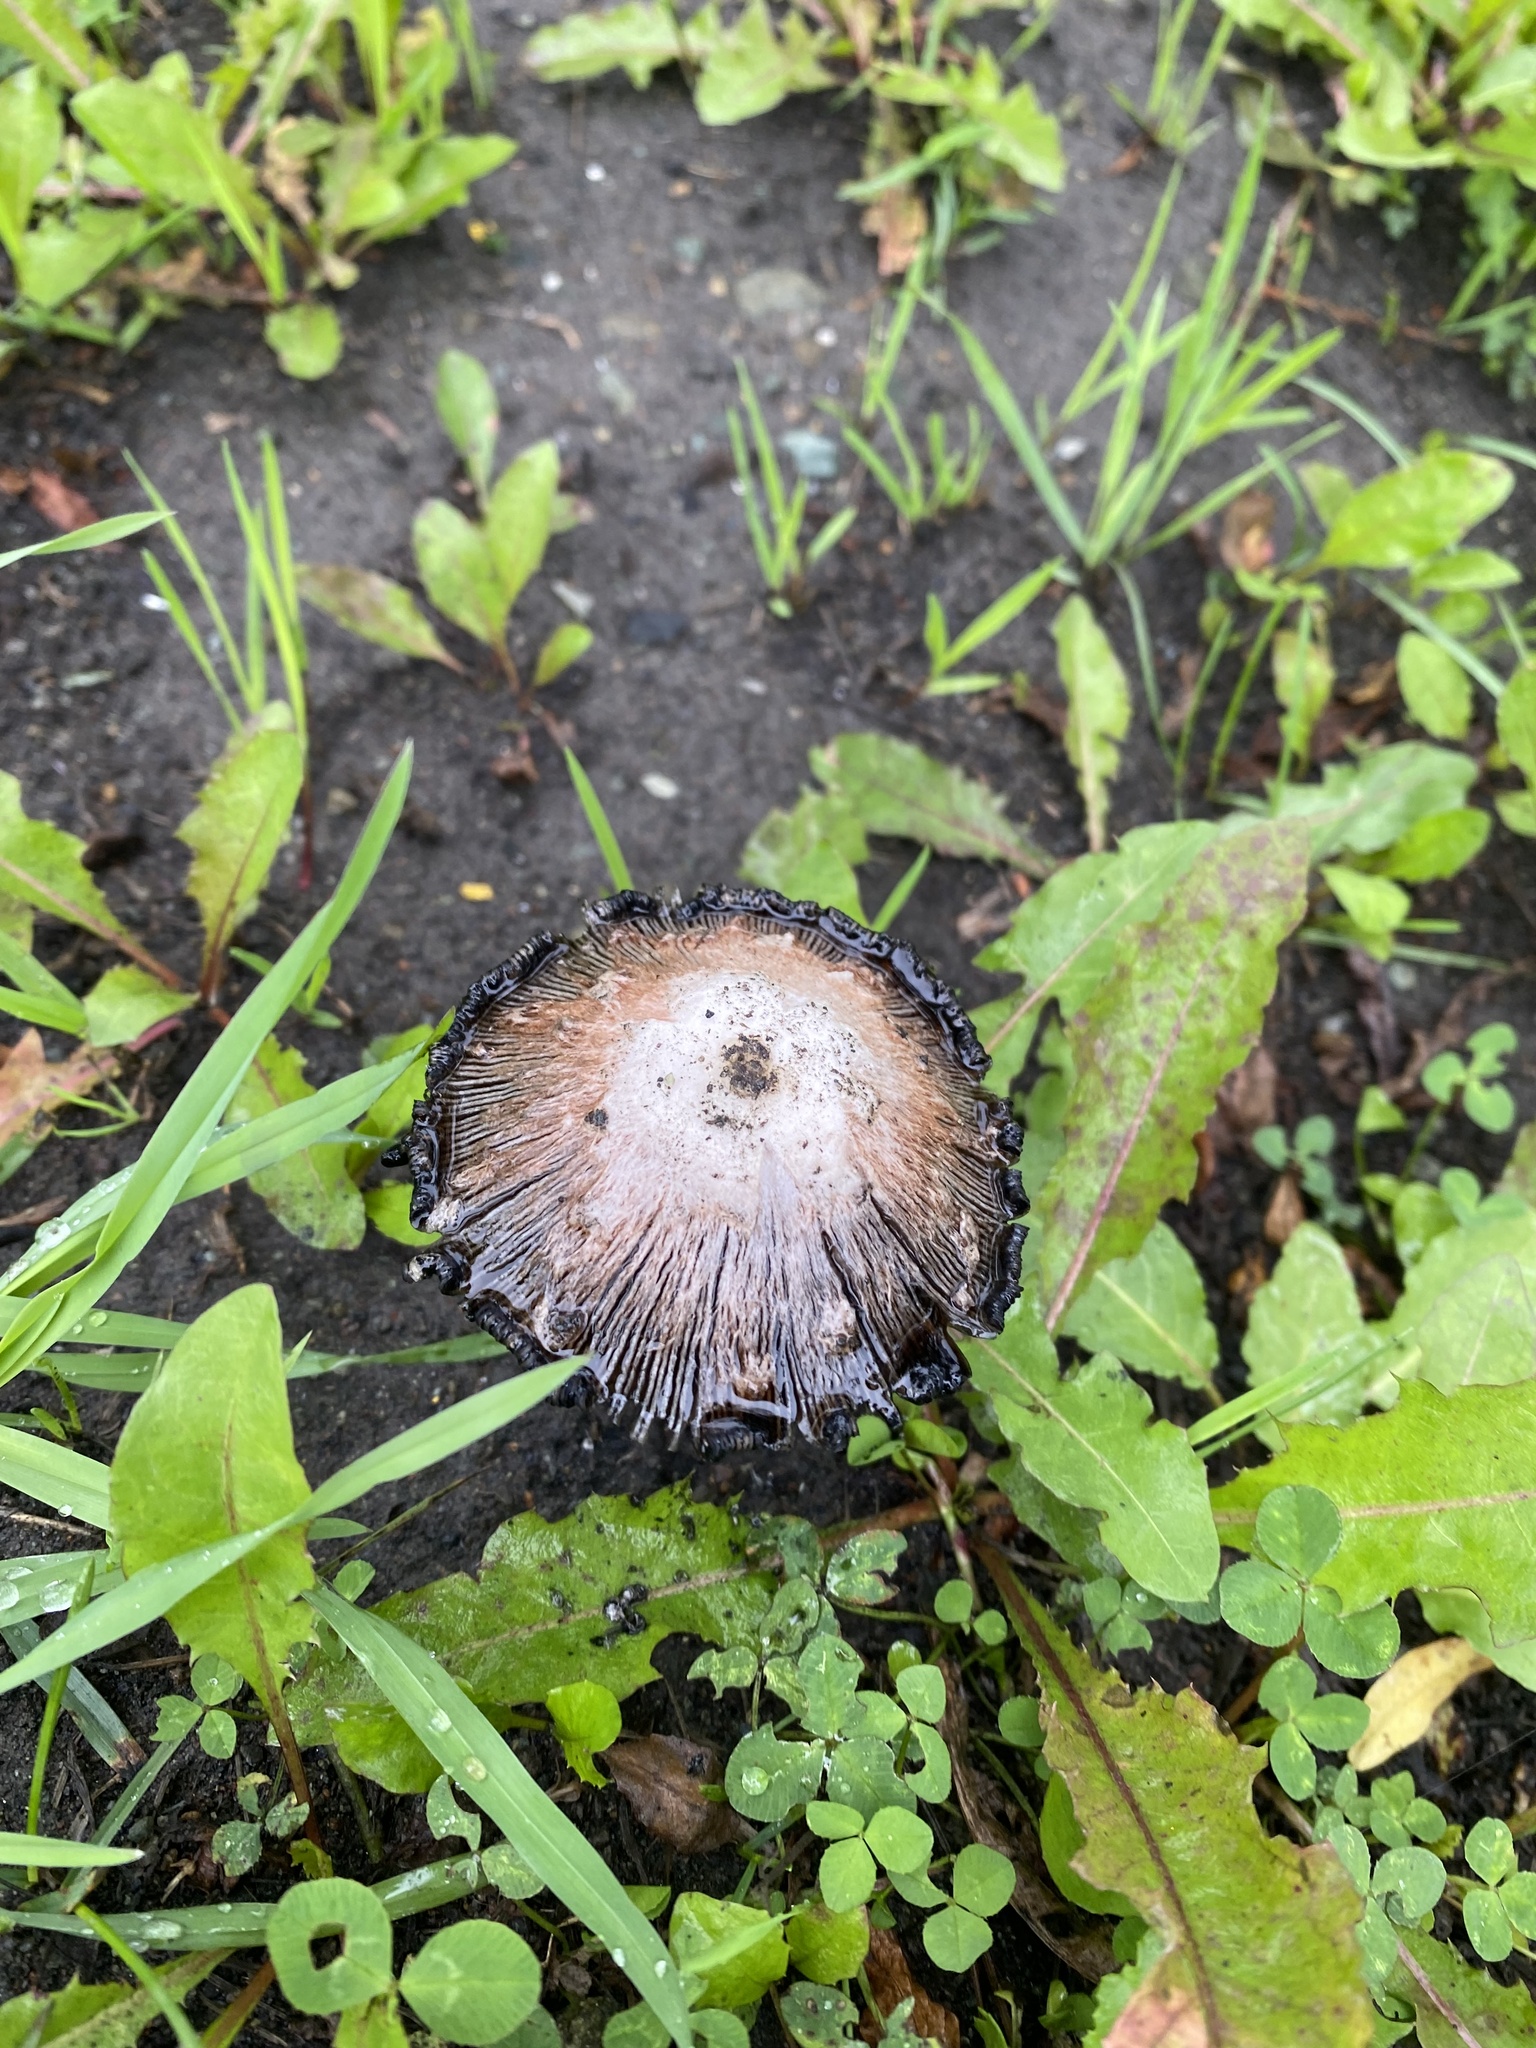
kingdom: Fungi
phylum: Basidiomycota
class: Agaricomycetes
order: Agaricales
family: Agaricaceae
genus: Coprinus
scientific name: Coprinus comatus
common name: Lawyer's wig
